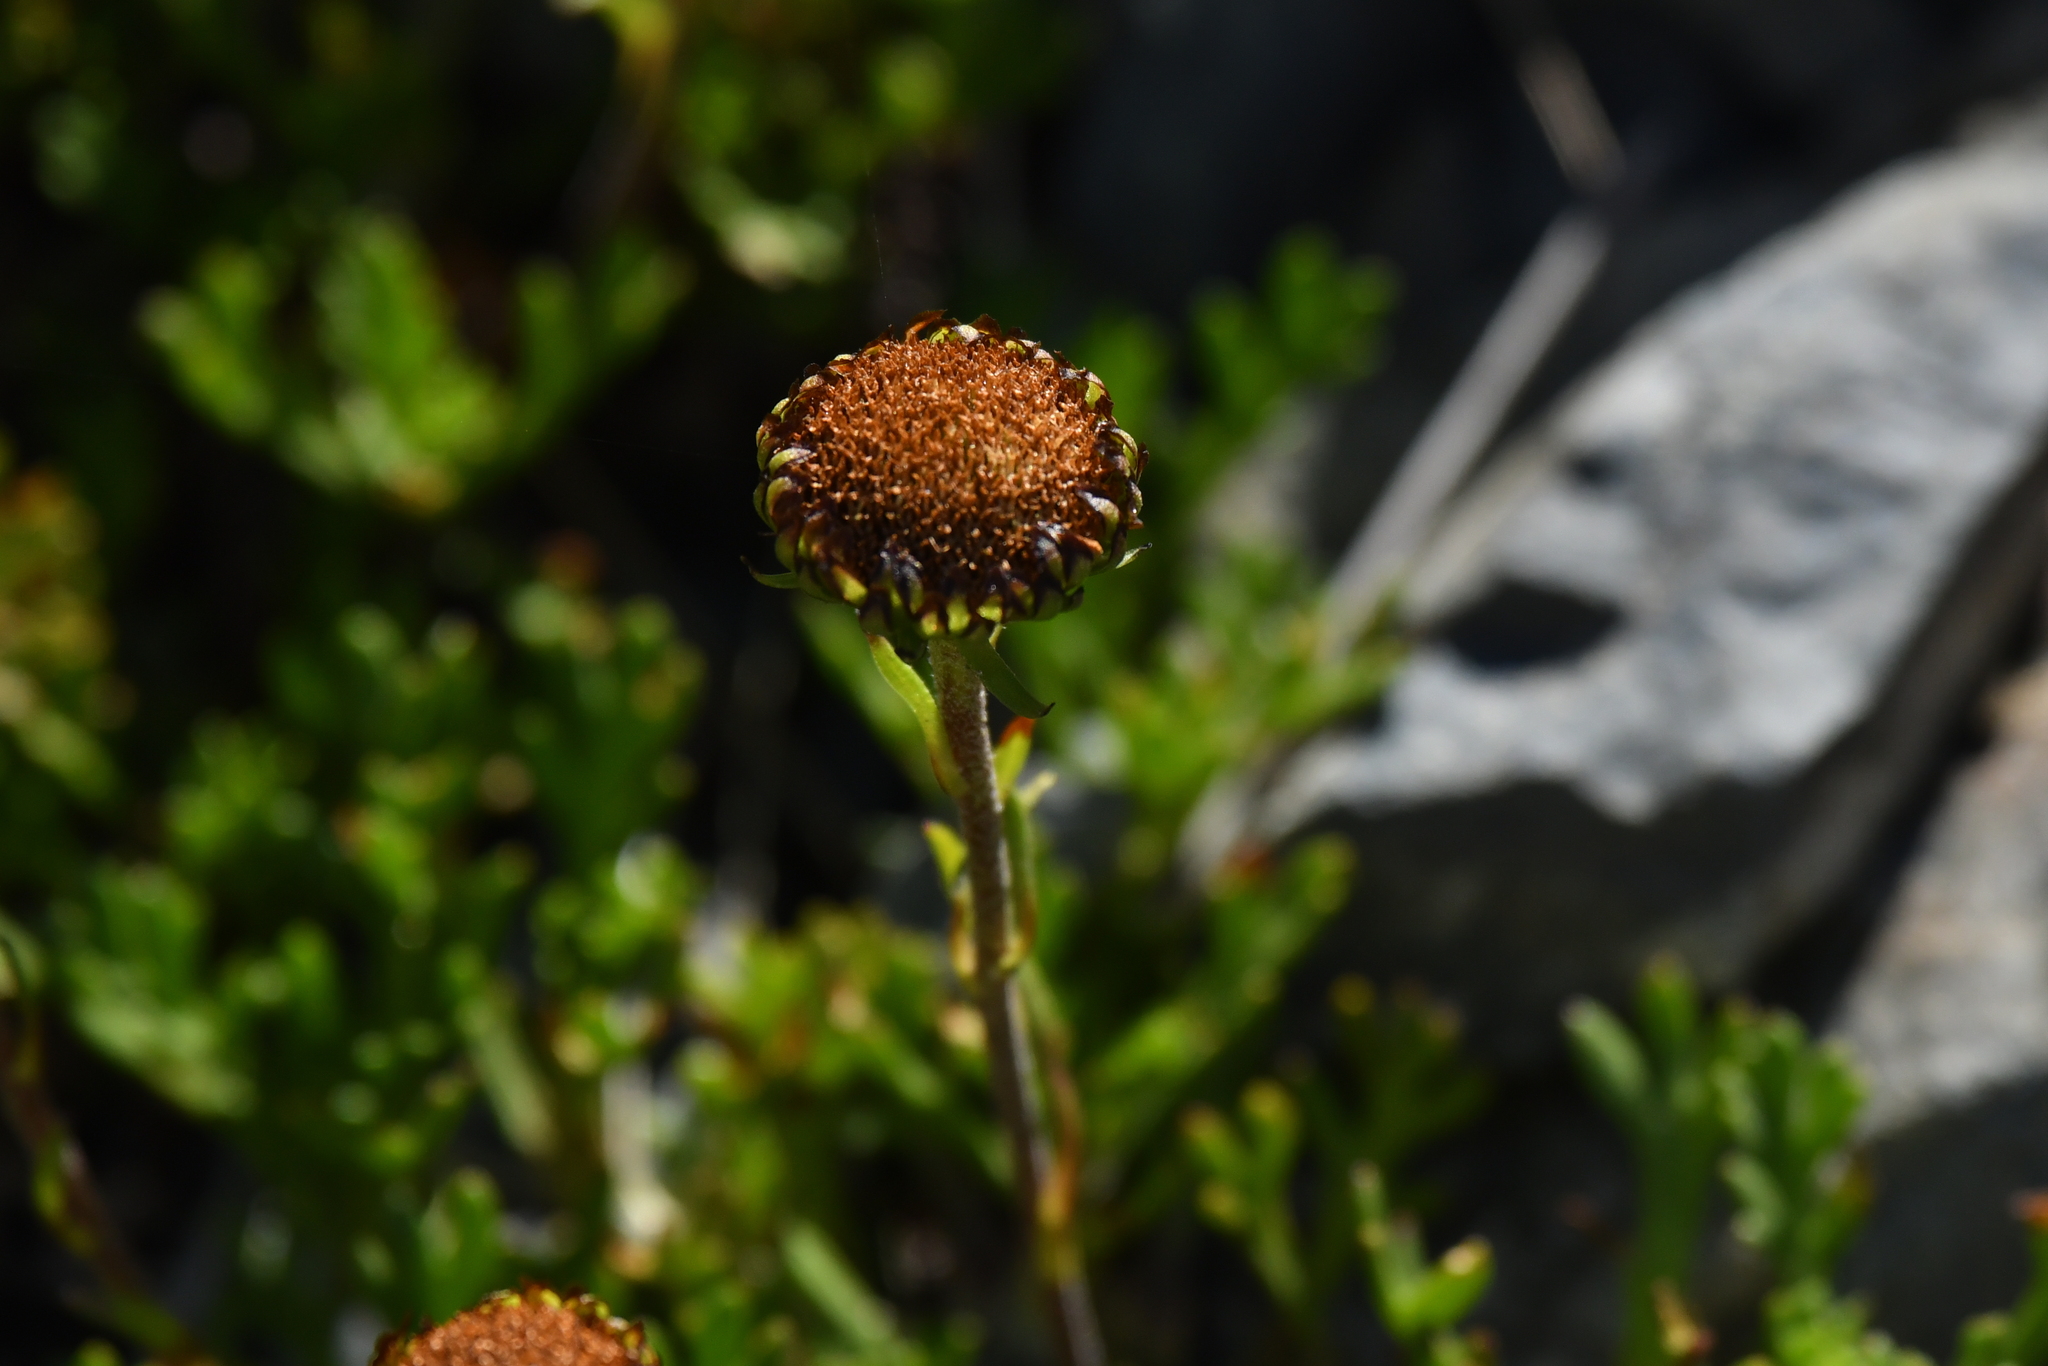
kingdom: Plantae
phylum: Tracheophyta
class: Magnoliopsida
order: Asterales
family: Asteraceae
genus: Leptinella
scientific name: Leptinella pyrethrifolia
